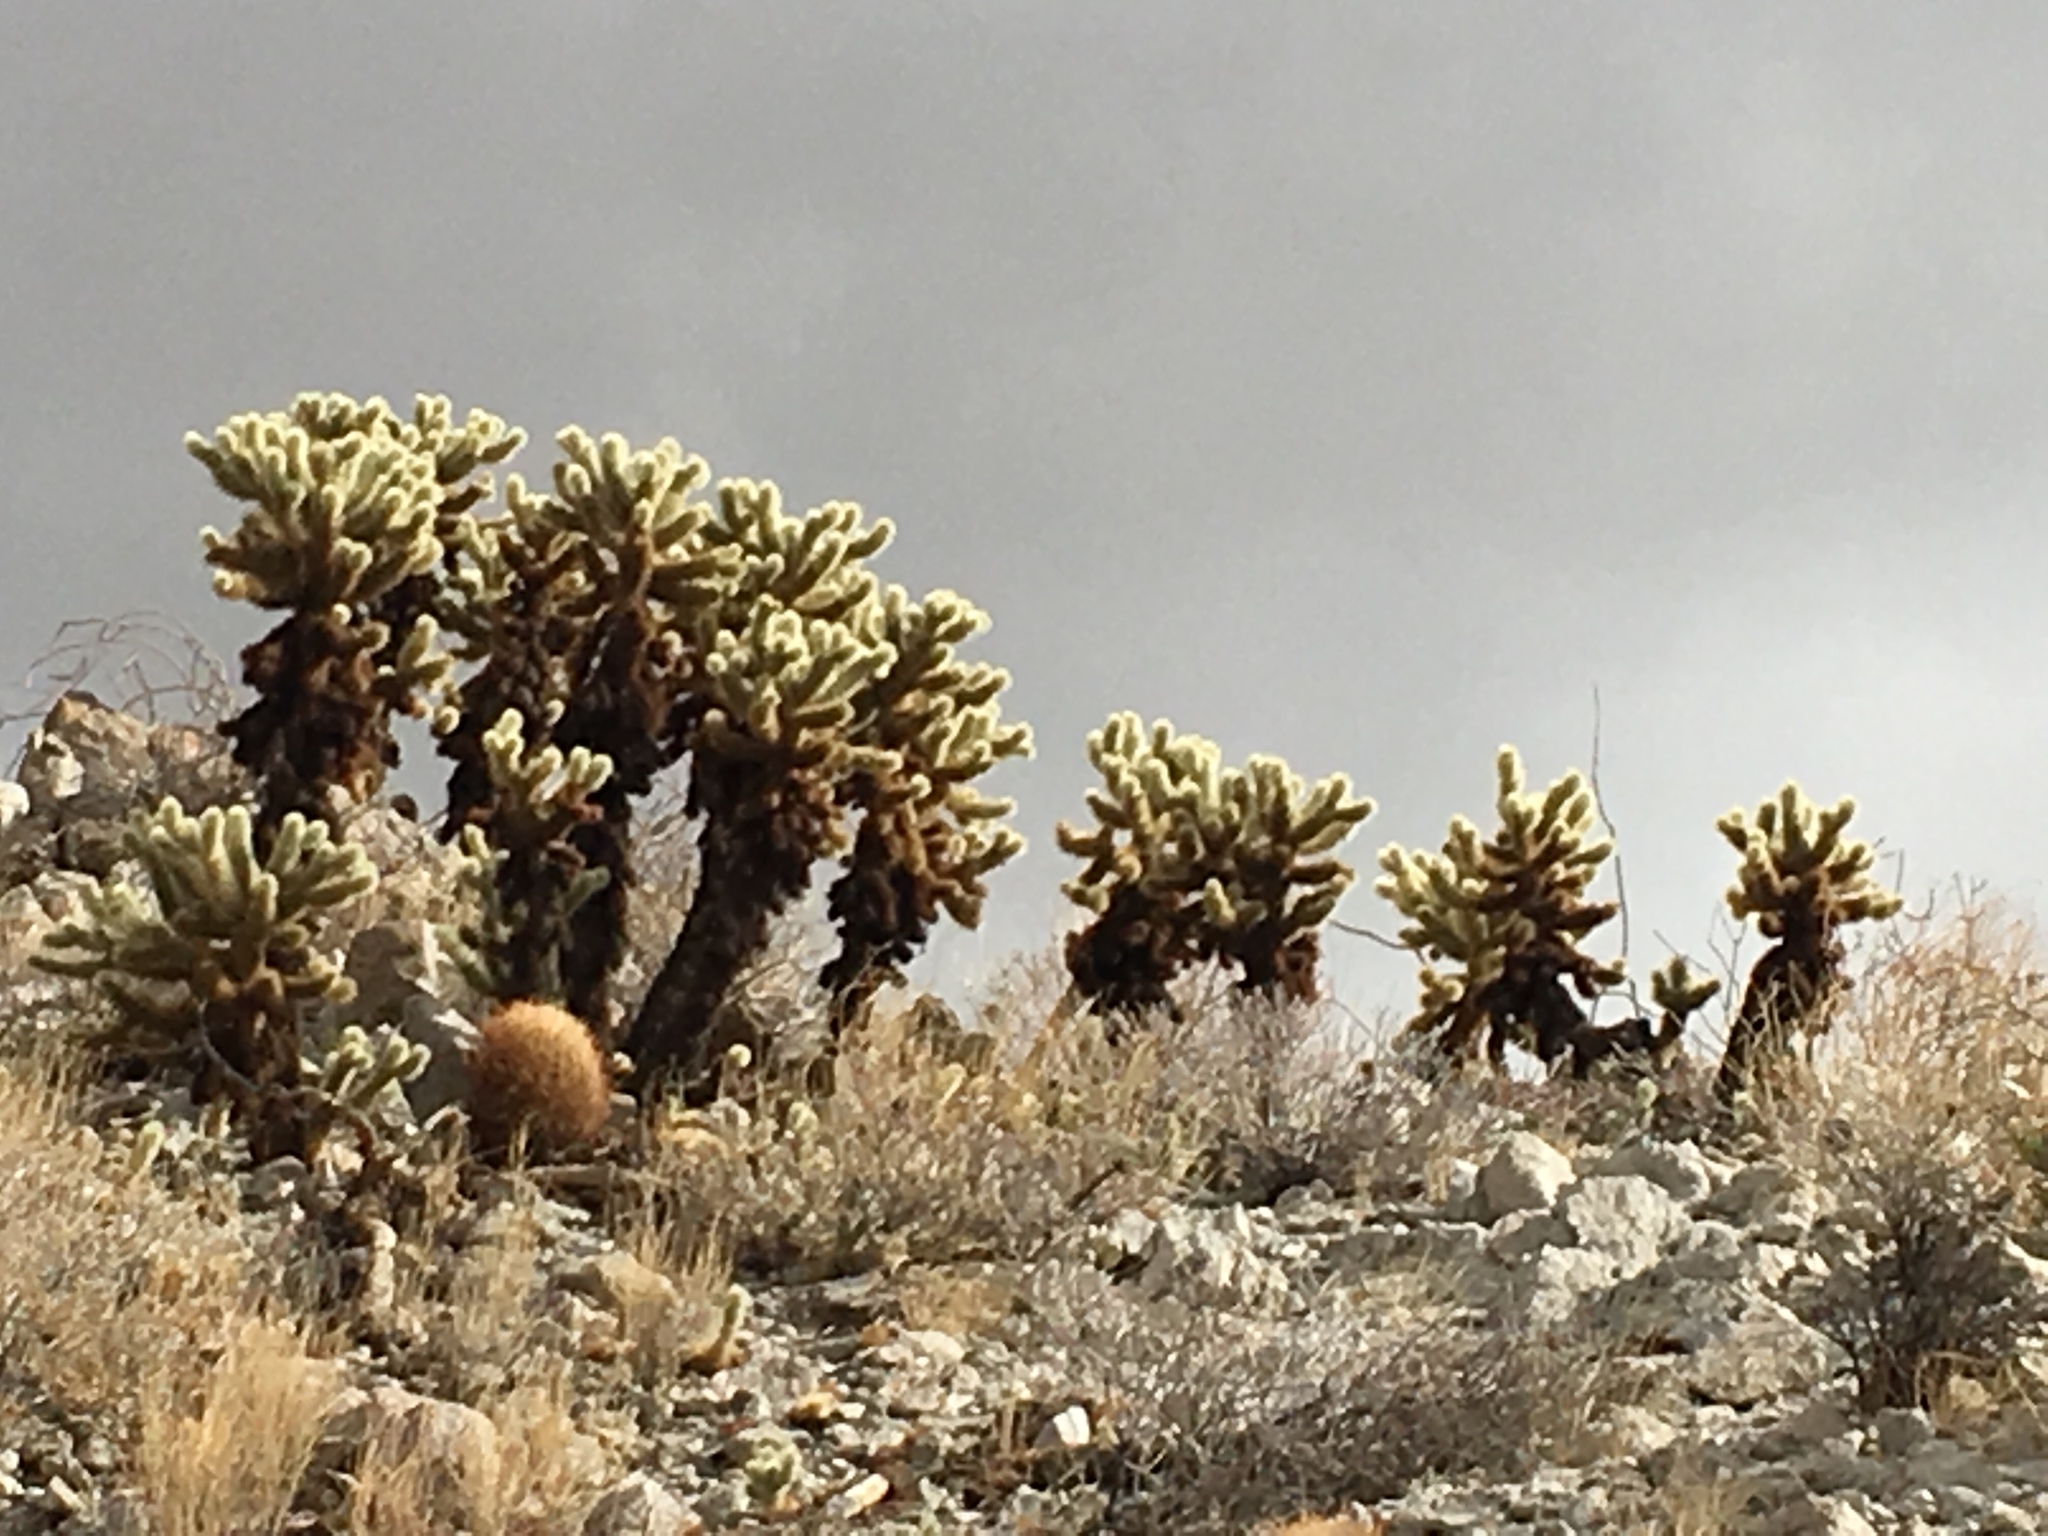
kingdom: Plantae
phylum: Tracheophyta
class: Magnoliopsida
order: Caryophyllales
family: Cactaceae
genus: Cylindropuntia
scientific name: Cylindropuntia fosbergii
